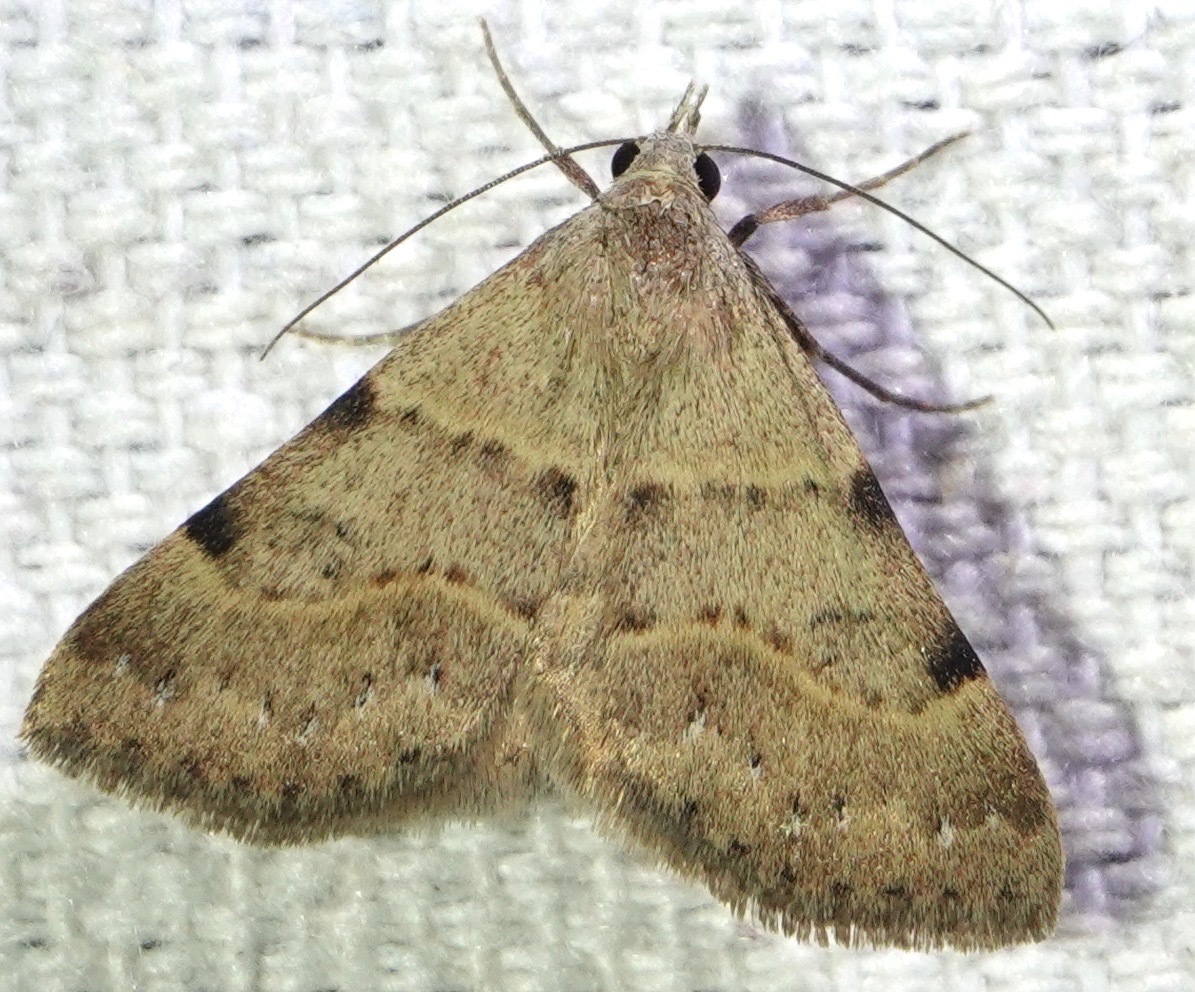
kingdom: Animalia
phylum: Arthropoda
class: Insecta
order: Lepidoptera
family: Erebidae
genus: Hemeroplanis
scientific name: Hemeroplanis historialis
